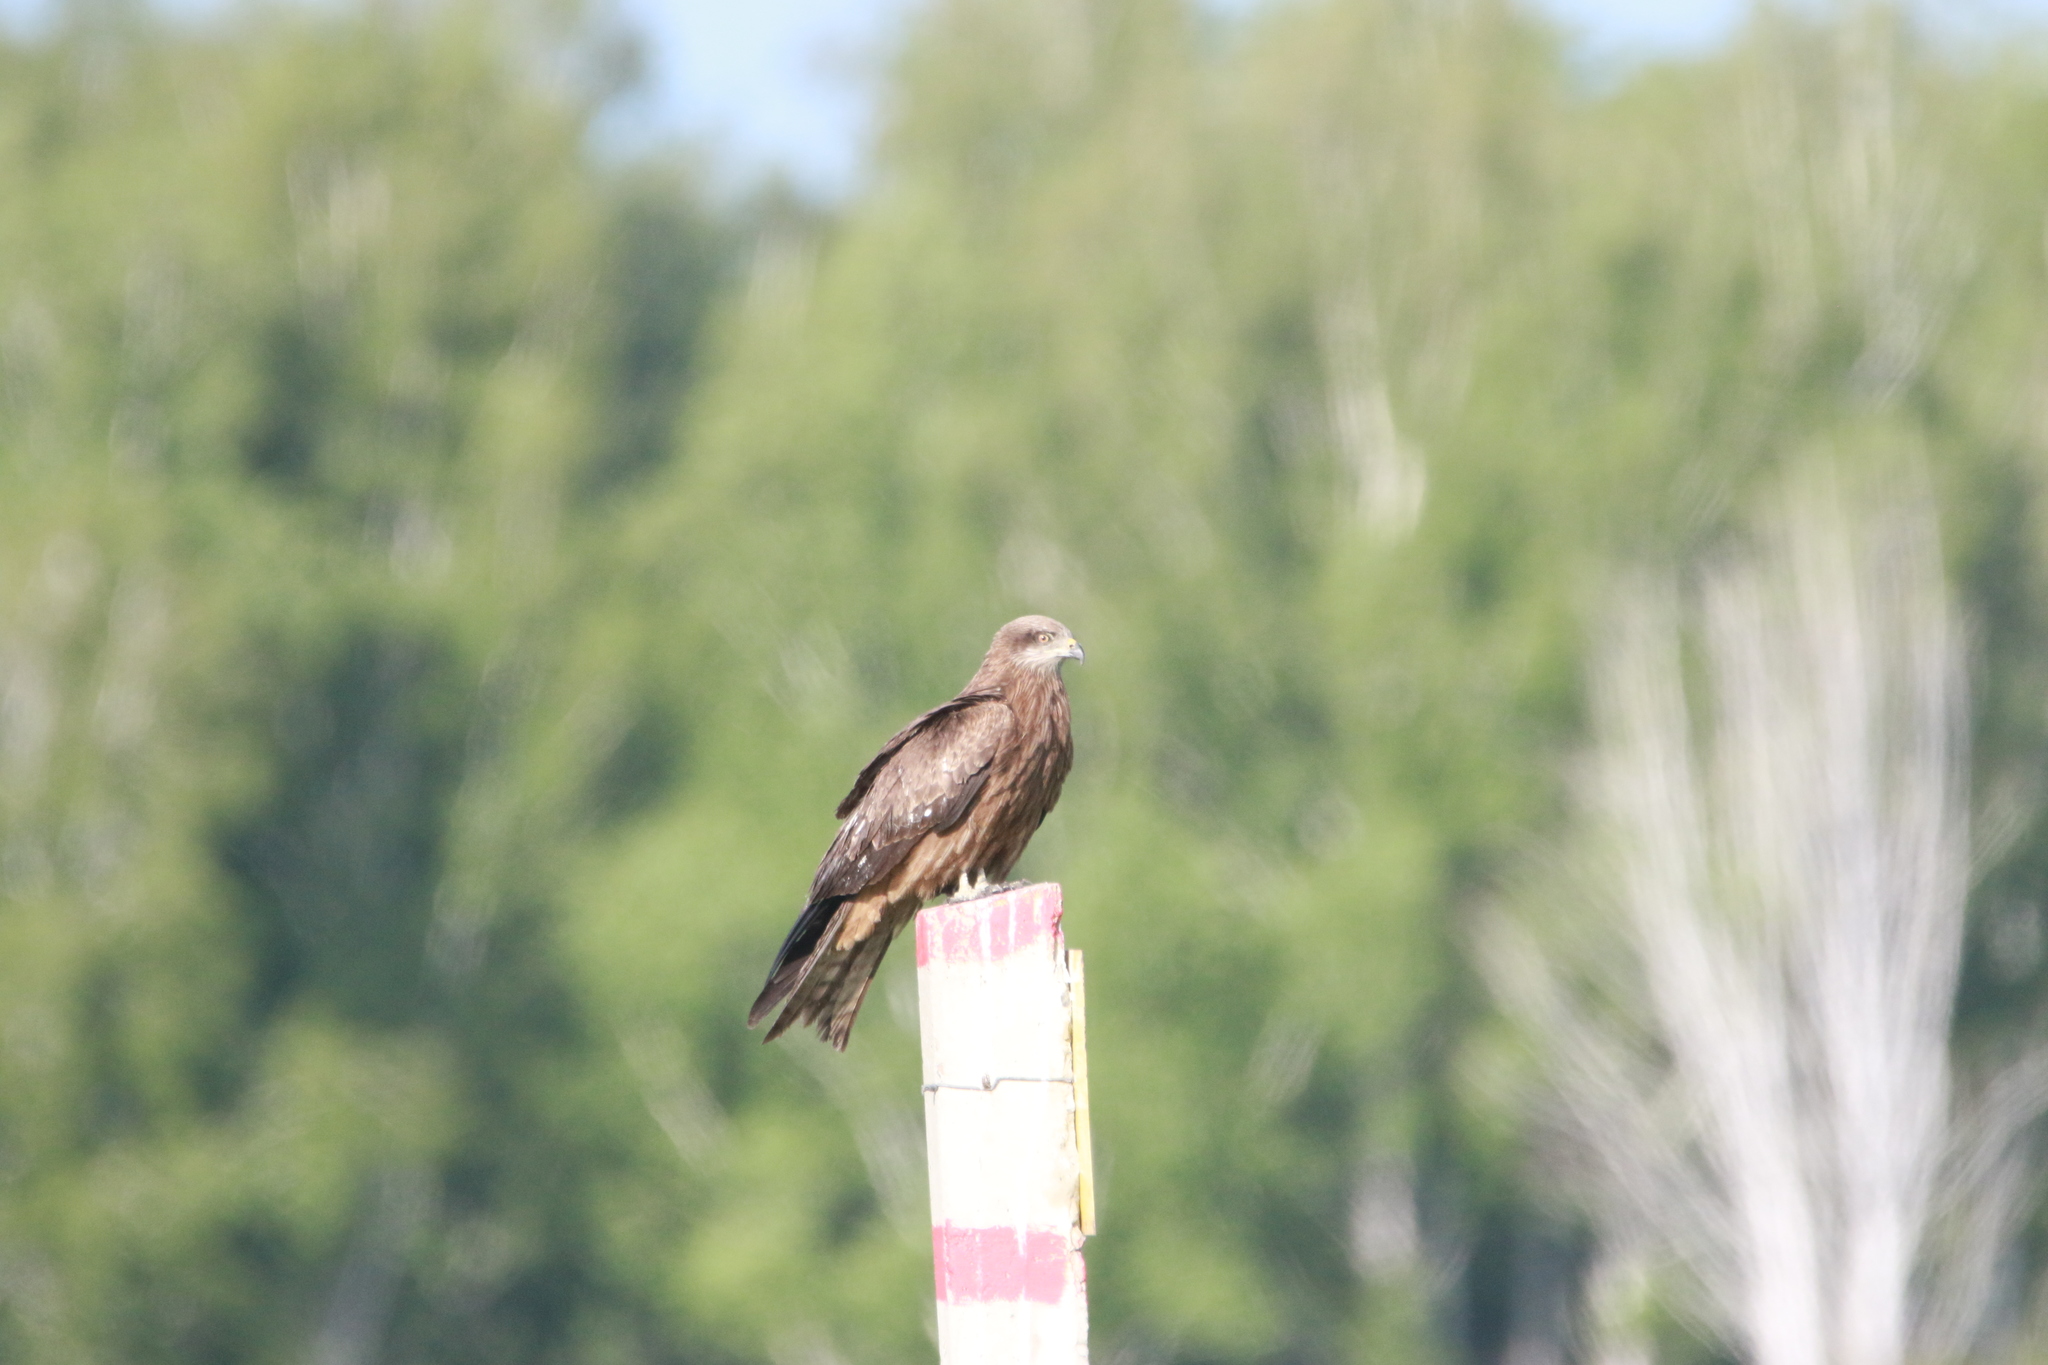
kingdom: Animalia
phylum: Chordata
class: Aves
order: Accipitriformes
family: Accipitridae
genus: Milvus
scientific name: Milvus migrans
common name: Black kite
